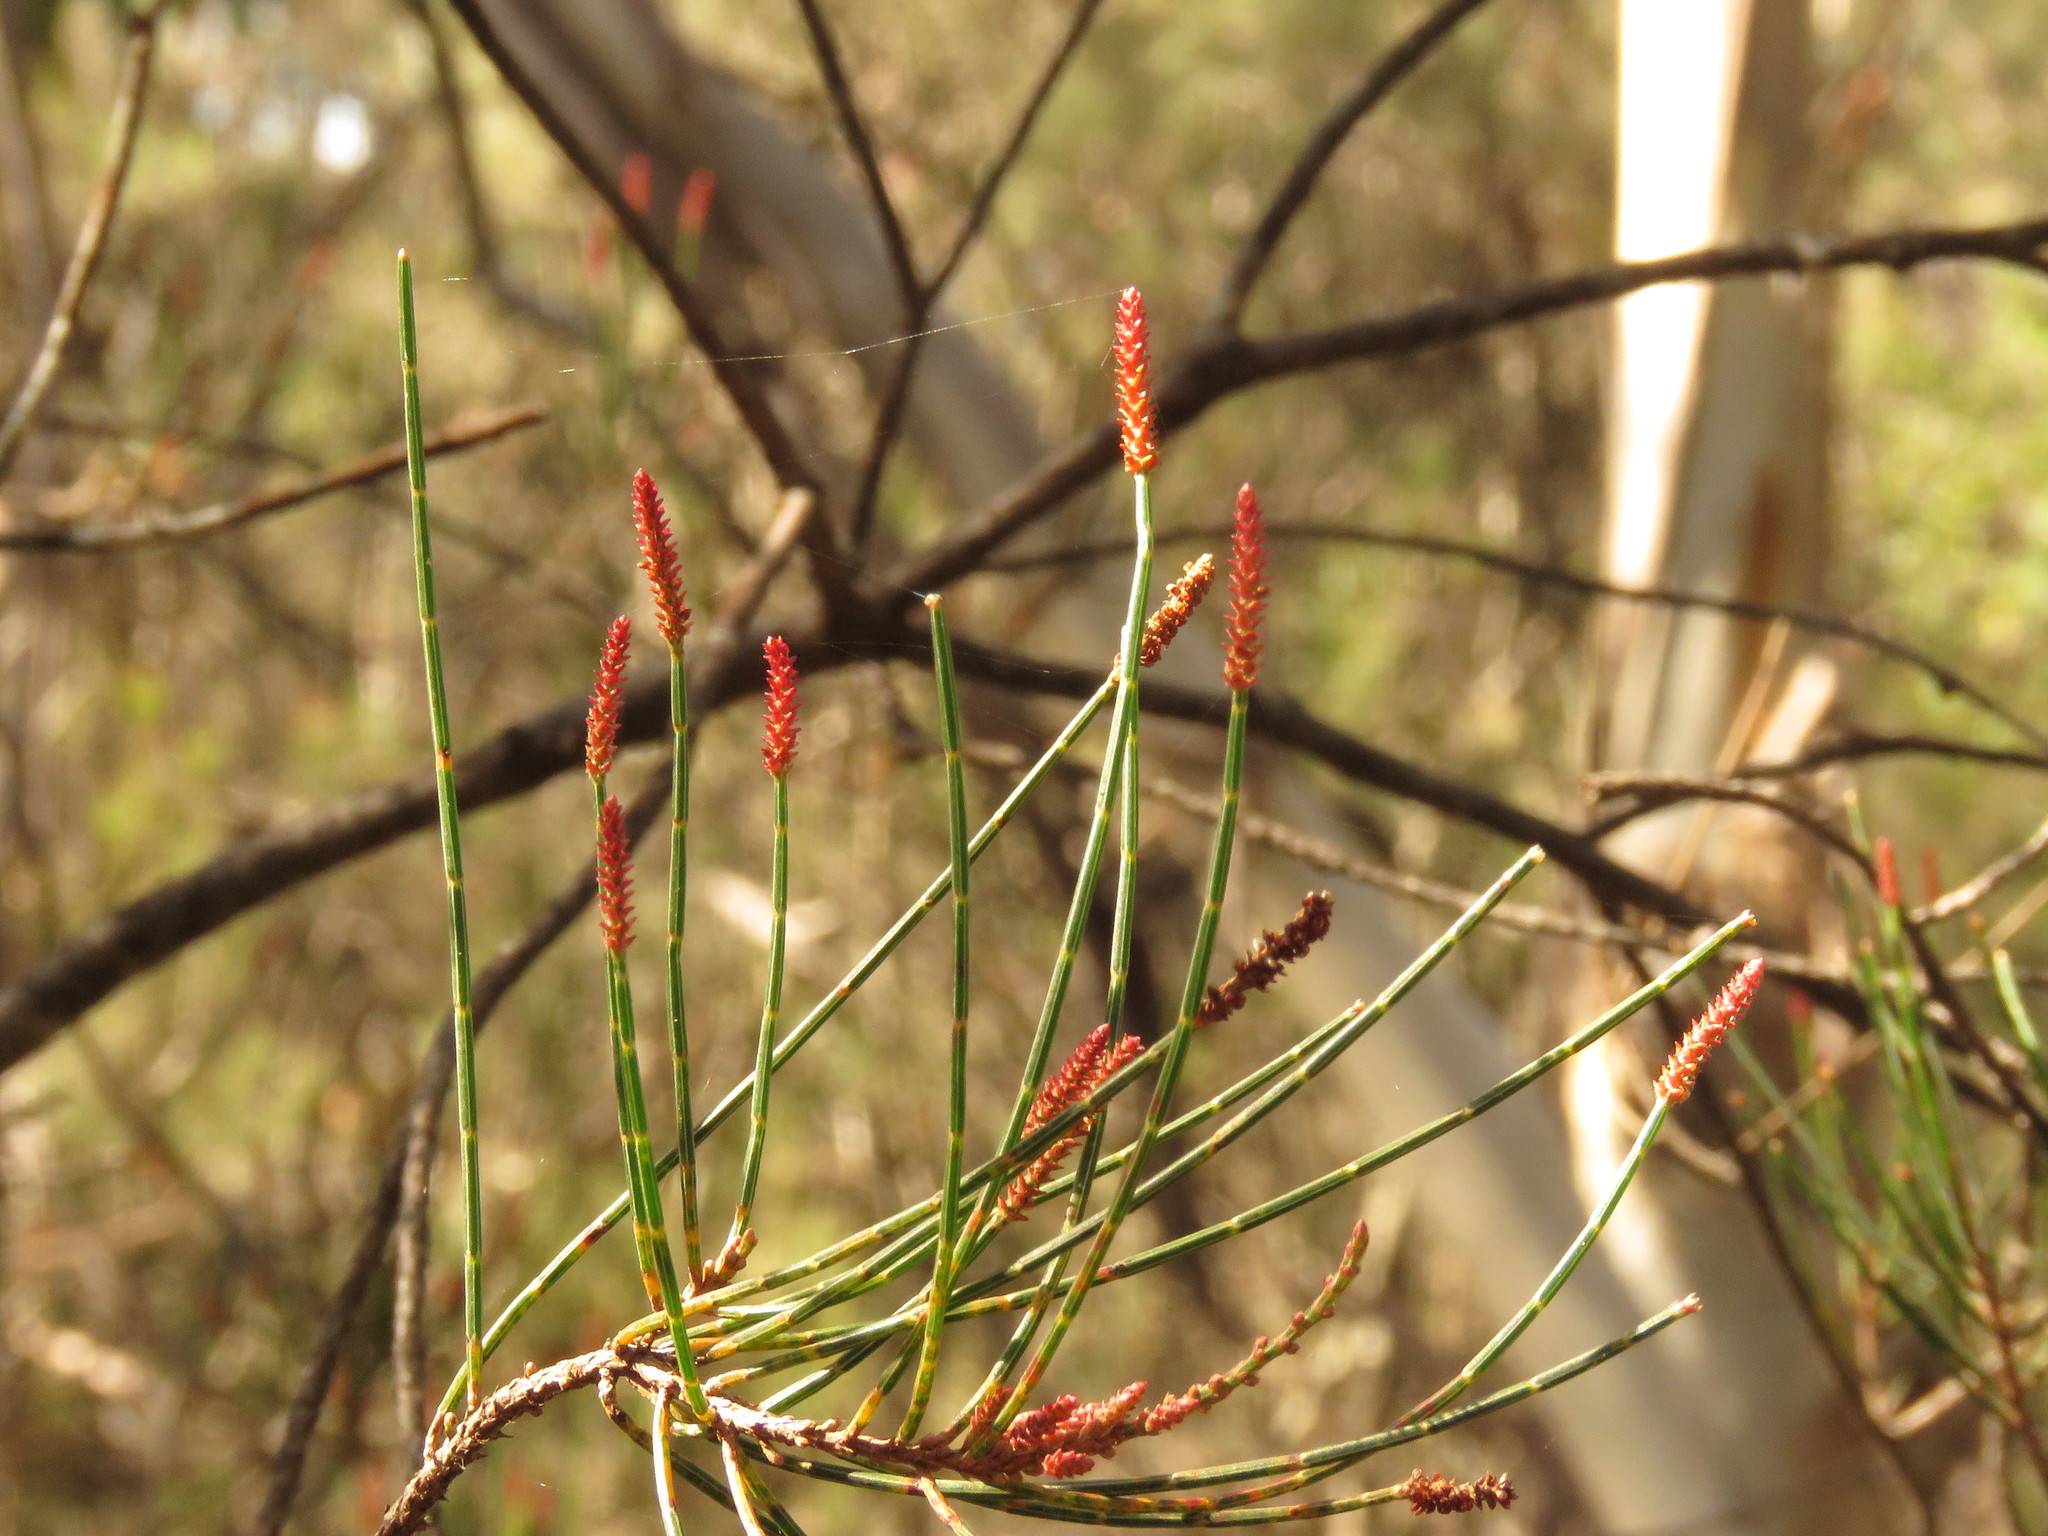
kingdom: Plantae
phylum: Tracheophyta
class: Magnoliopsida
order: Fagales
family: Casuarinaceae
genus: Allocasuarina
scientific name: Allocasuarina littoralis
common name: Black she-oak
